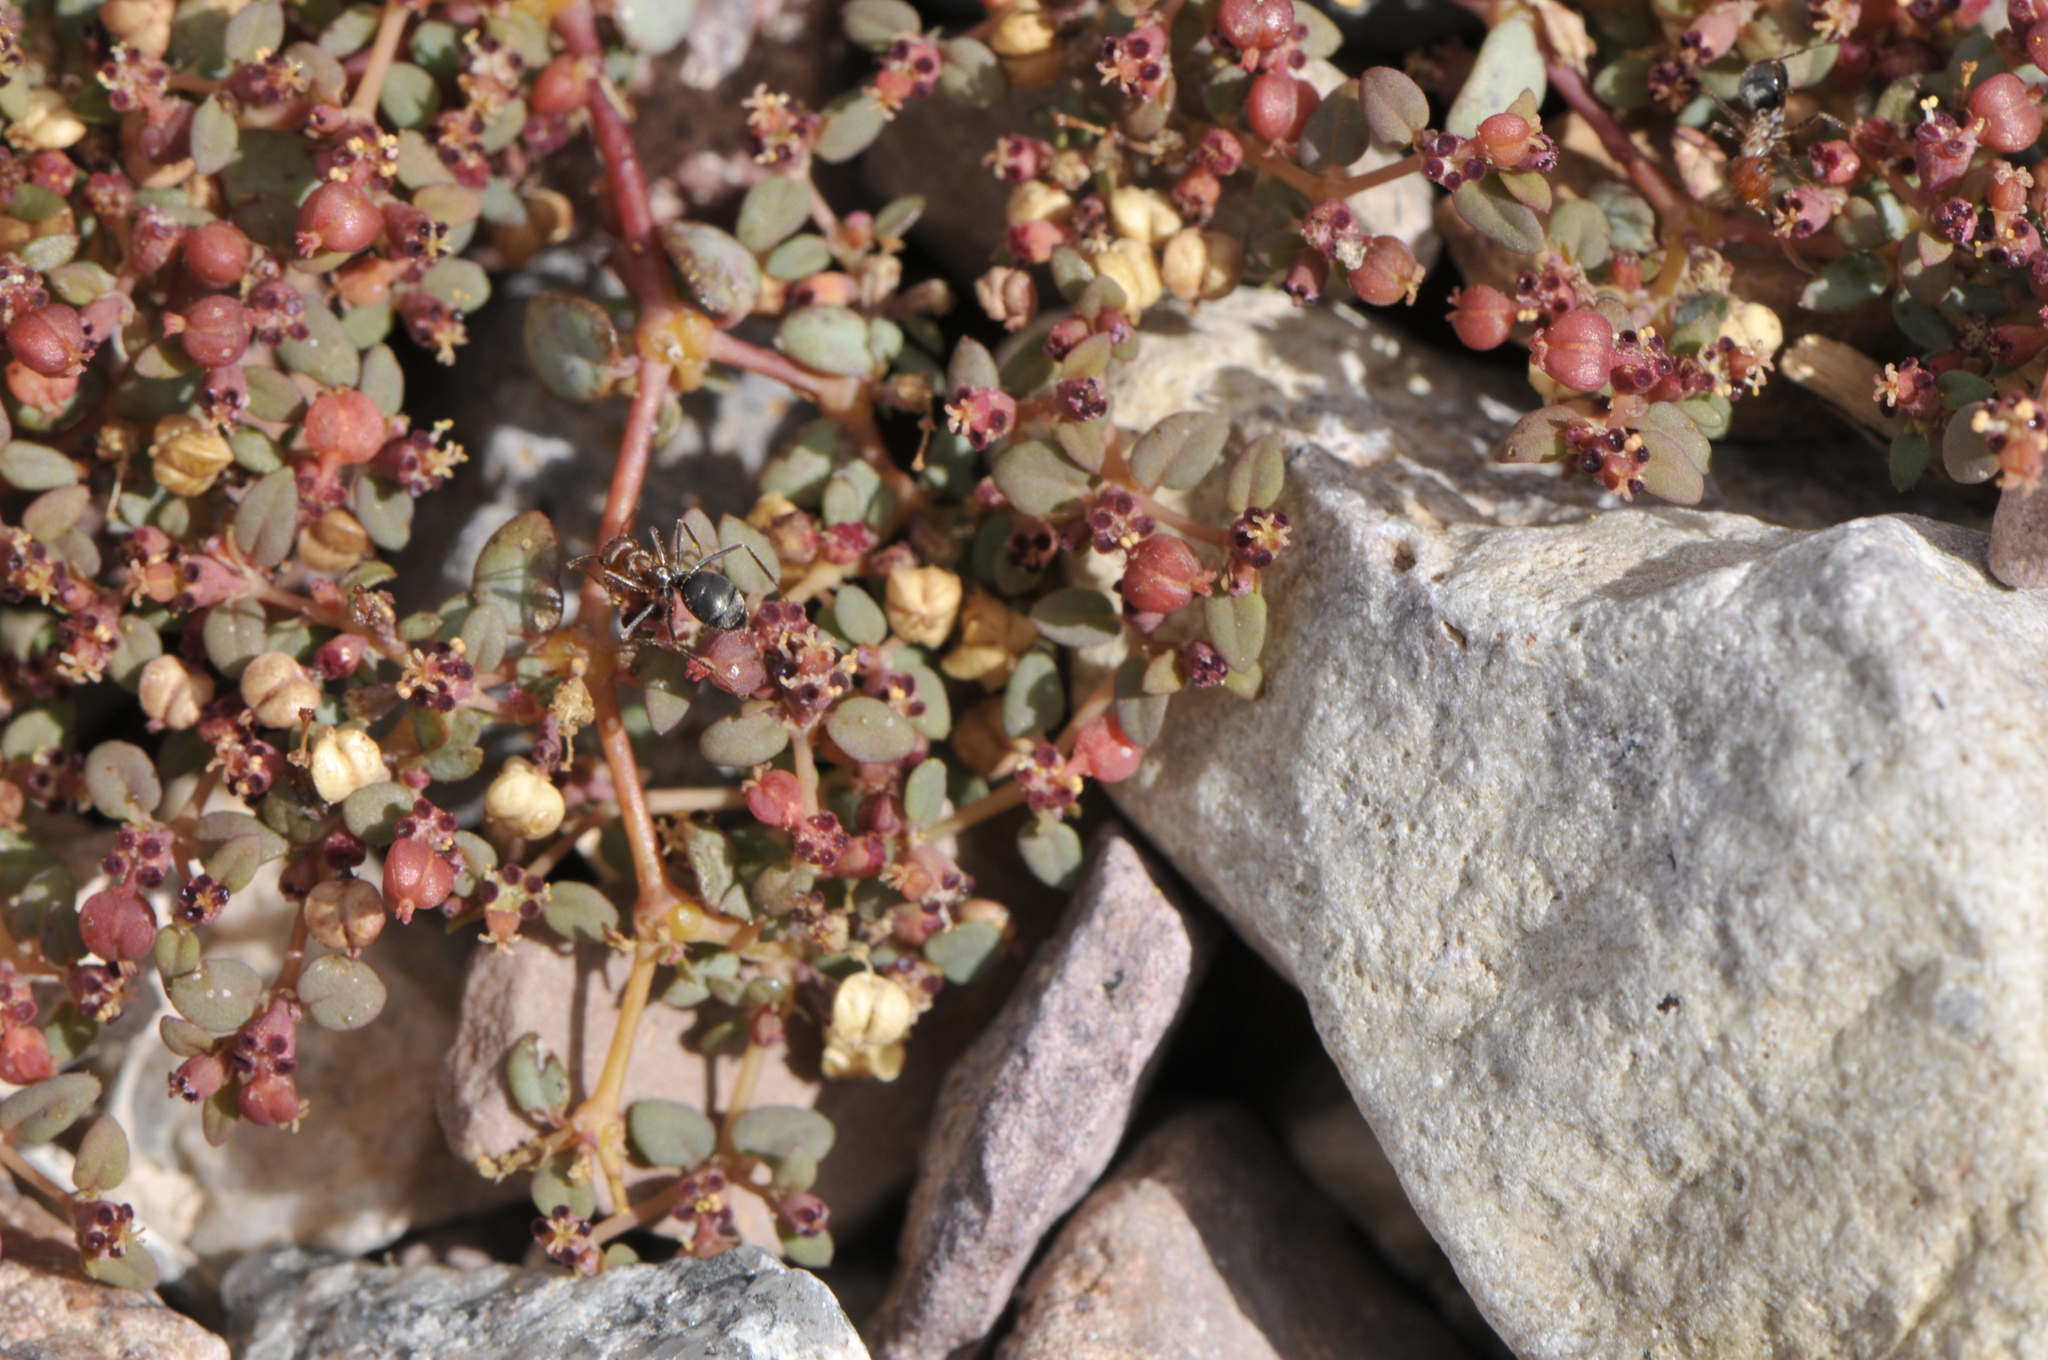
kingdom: Plantae
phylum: Tracheophyta
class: Magnoliopsida
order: Malpighiales
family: Euphorbiaceae
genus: Euphorbia
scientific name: Euphorbia parishii
